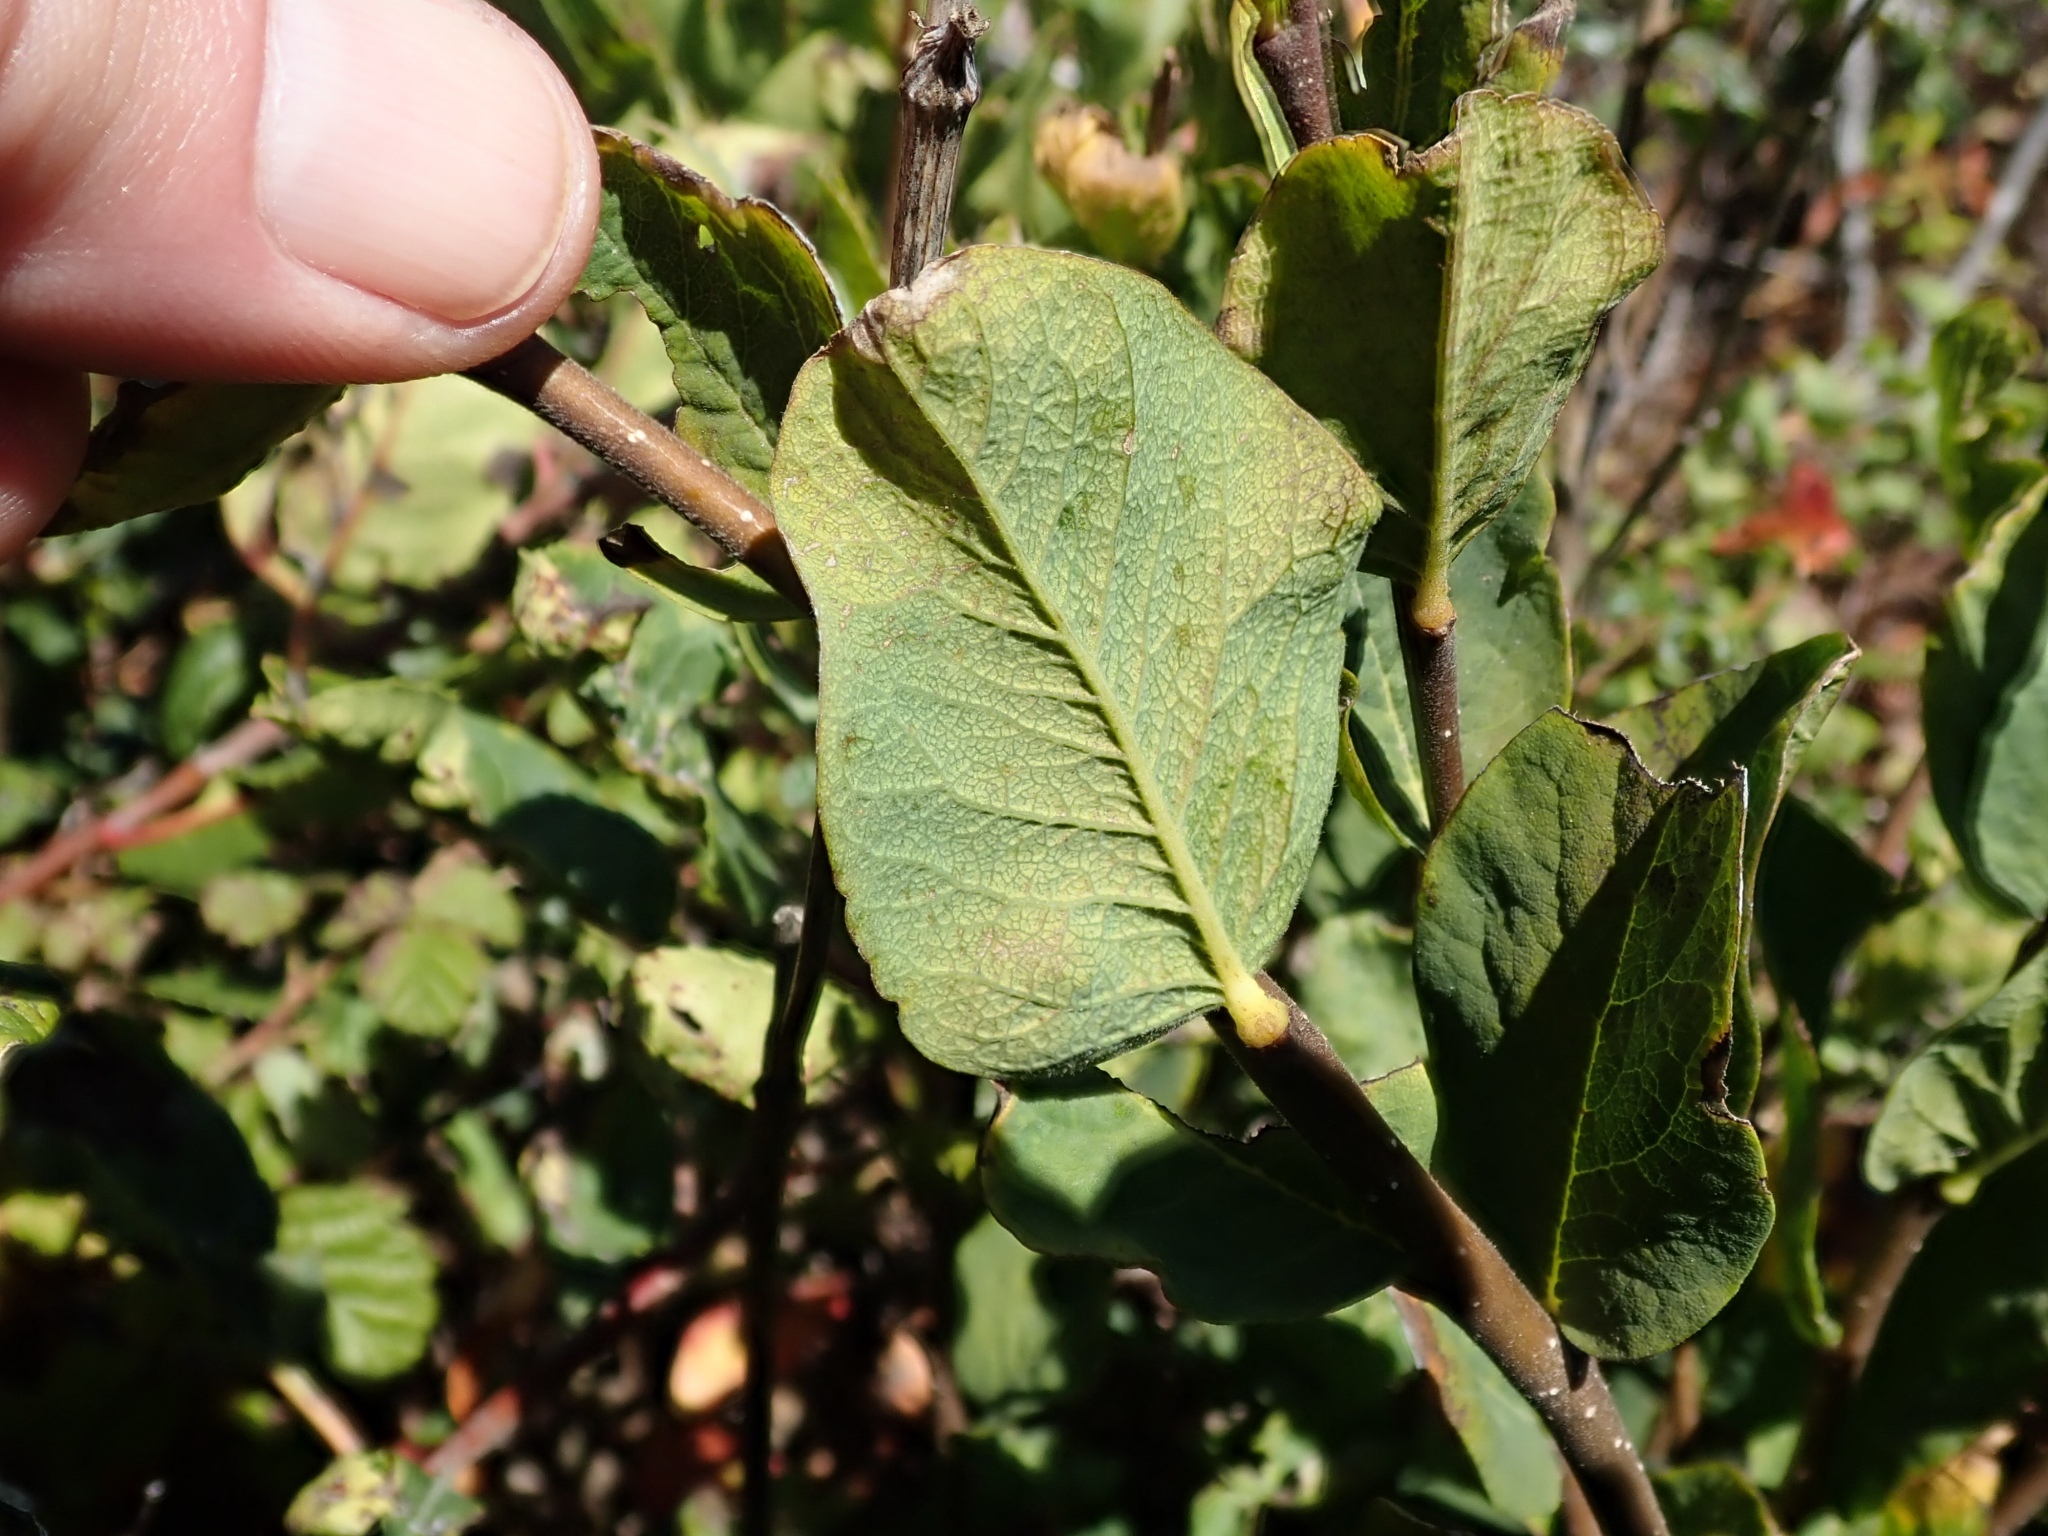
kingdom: Plantae
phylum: Tracheophyta
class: Magnoliopsida
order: Malvales
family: Thymelaeaceae
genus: Dirca
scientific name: Dirca occidentalis
